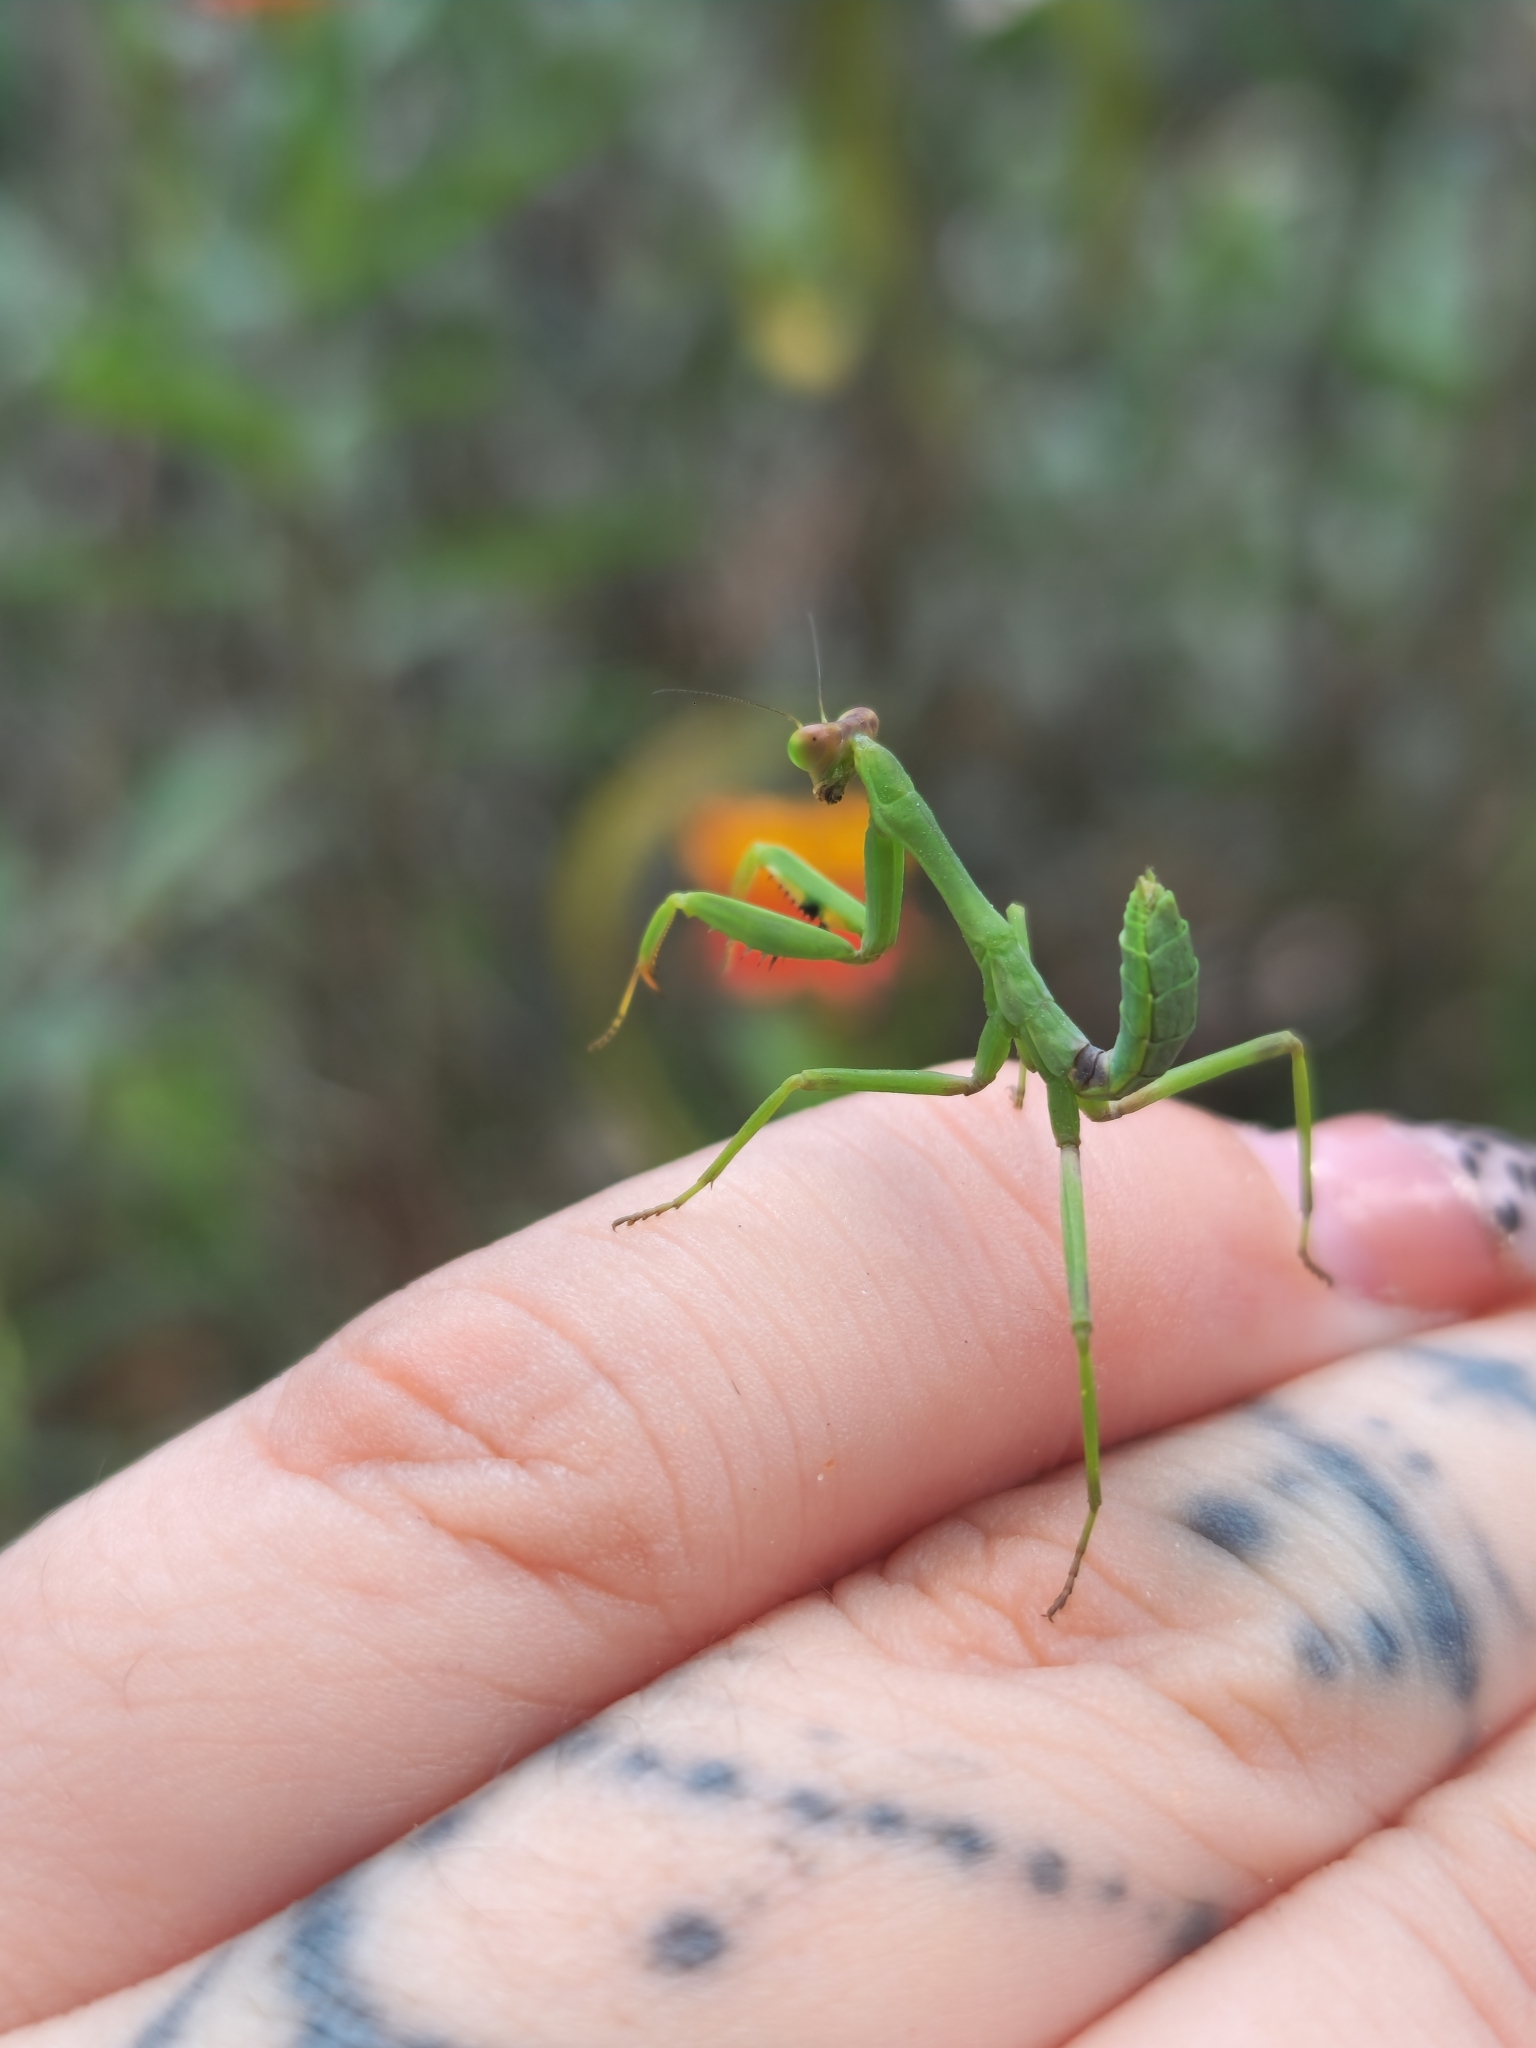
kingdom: Animalia
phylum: Arthropoda
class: Insecta
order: Mantodea
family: Mantidae
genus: Stagmatoptera
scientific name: Stagmatoptera hyaloptera
